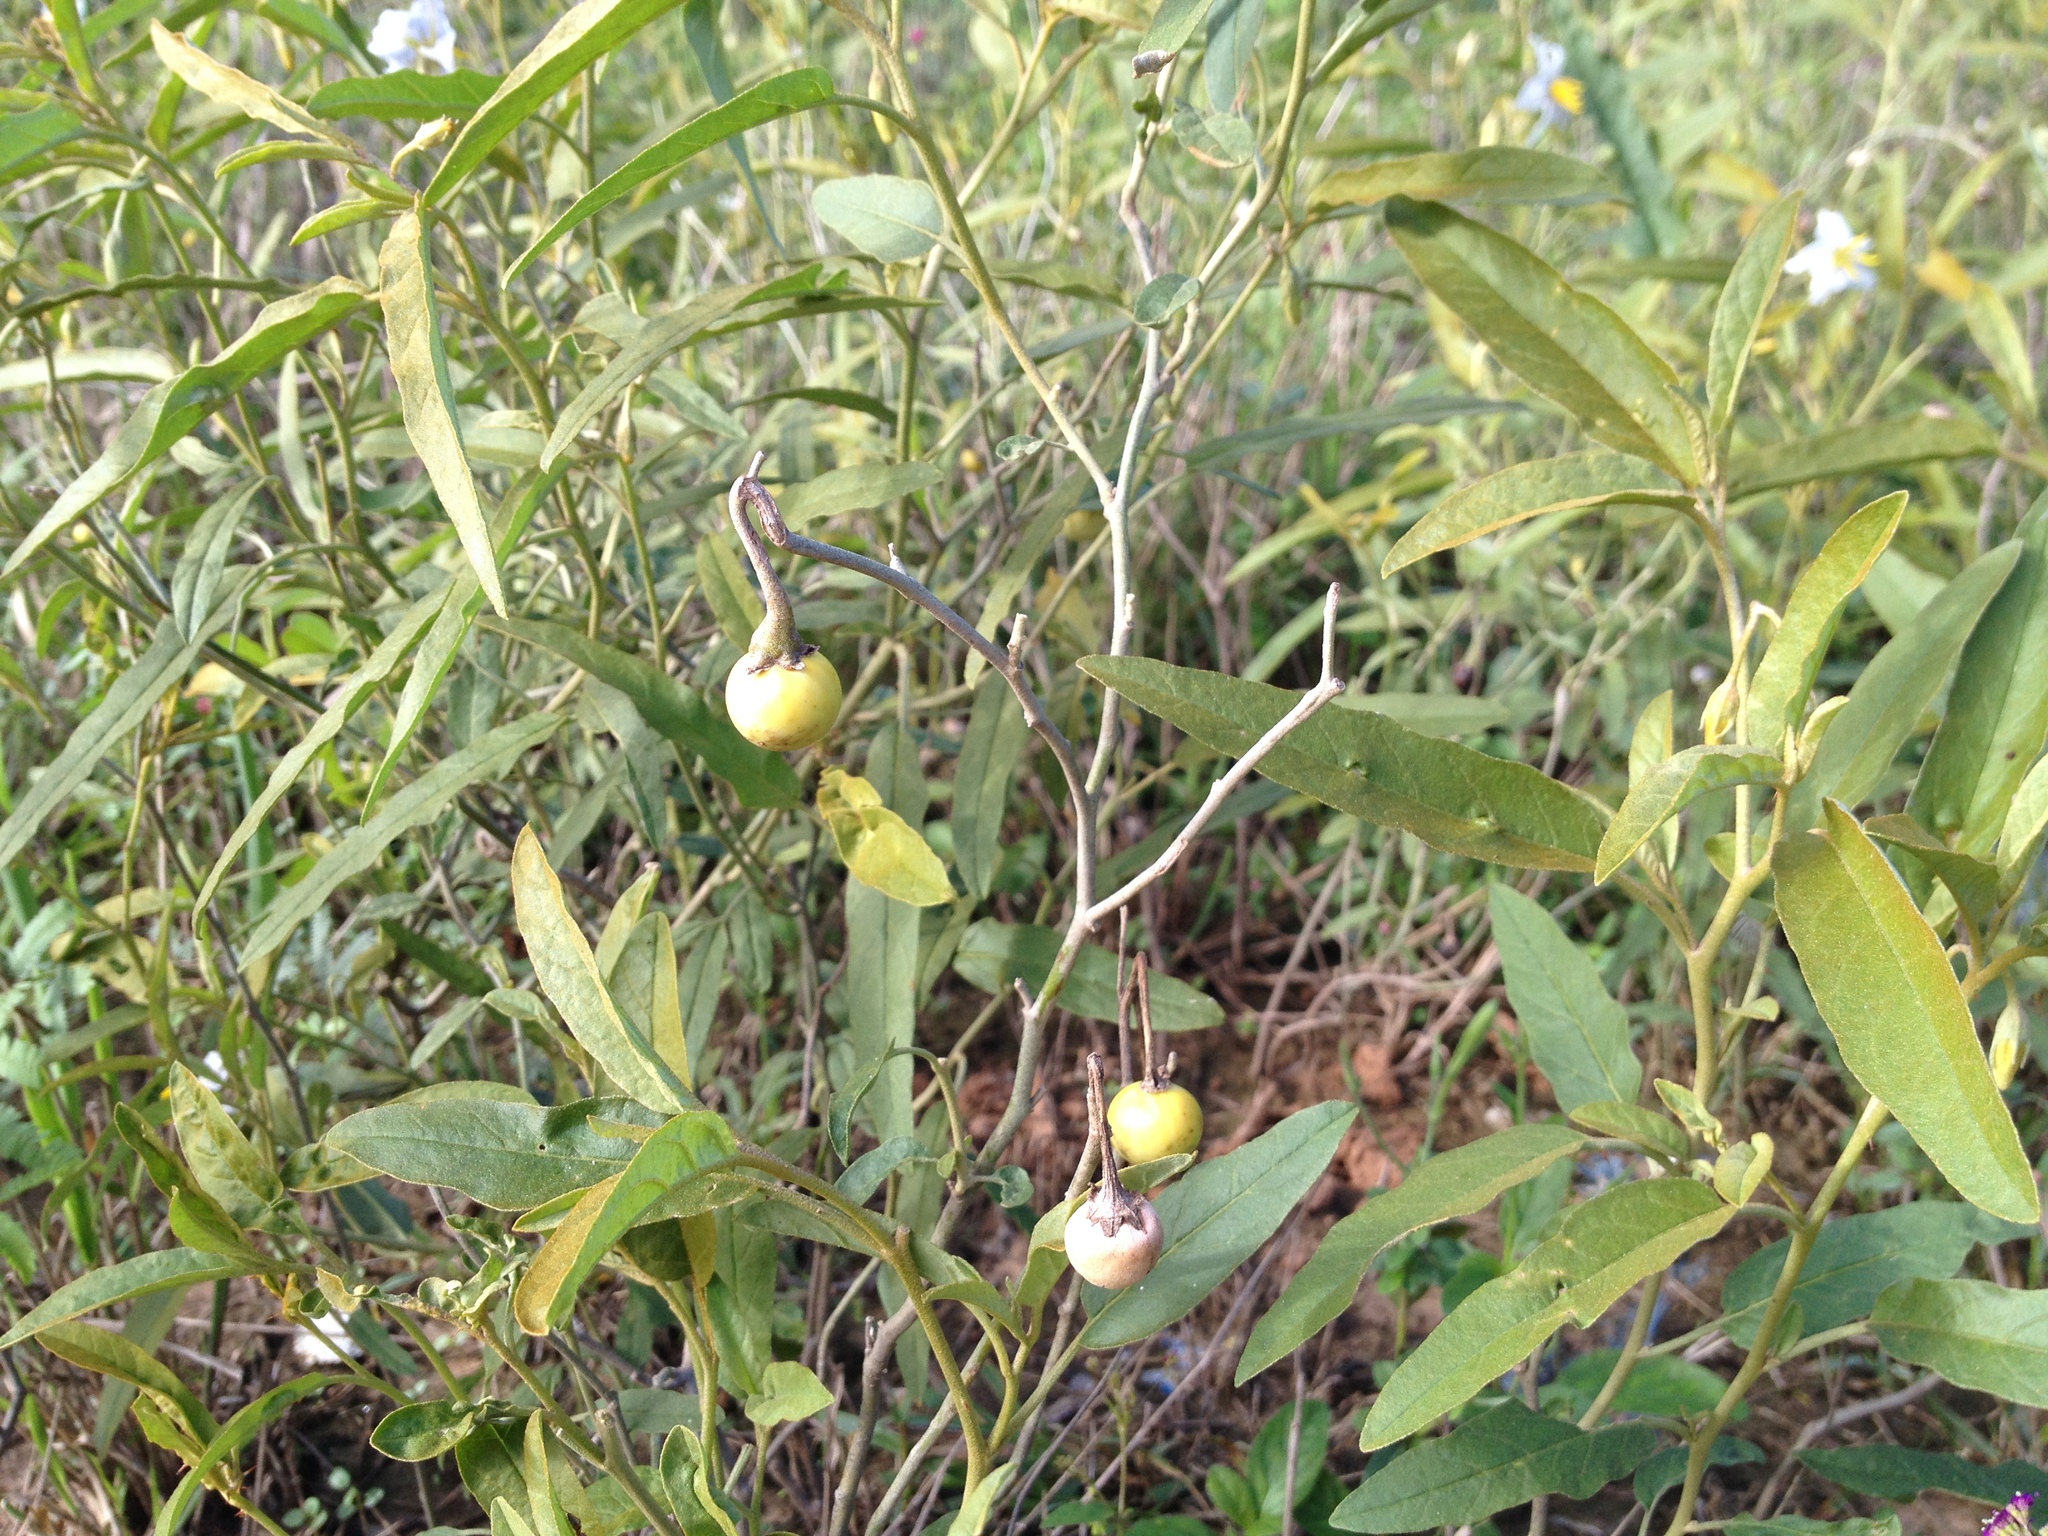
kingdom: Plantae
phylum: Tracheophyta
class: Magnoliopsida
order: Solanales
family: Solanaceae
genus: Solanum
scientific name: Solanum elaeagnifolium
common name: Silverleaf nightshade
